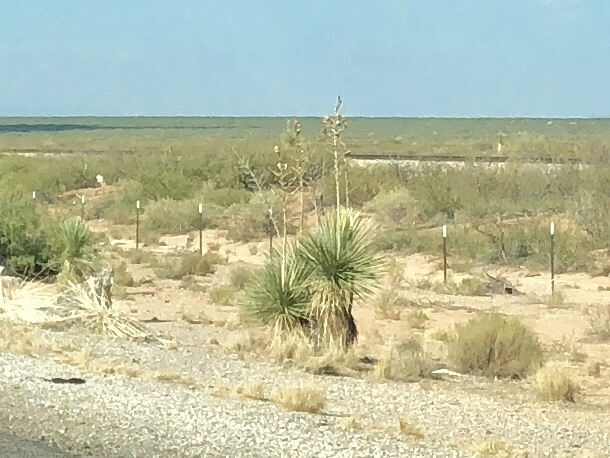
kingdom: Plantae
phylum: Tracheophyta
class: Liliopsida
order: Asparagales
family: Asparagaceae
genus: Yucca
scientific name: Yucca elata
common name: Palmella
